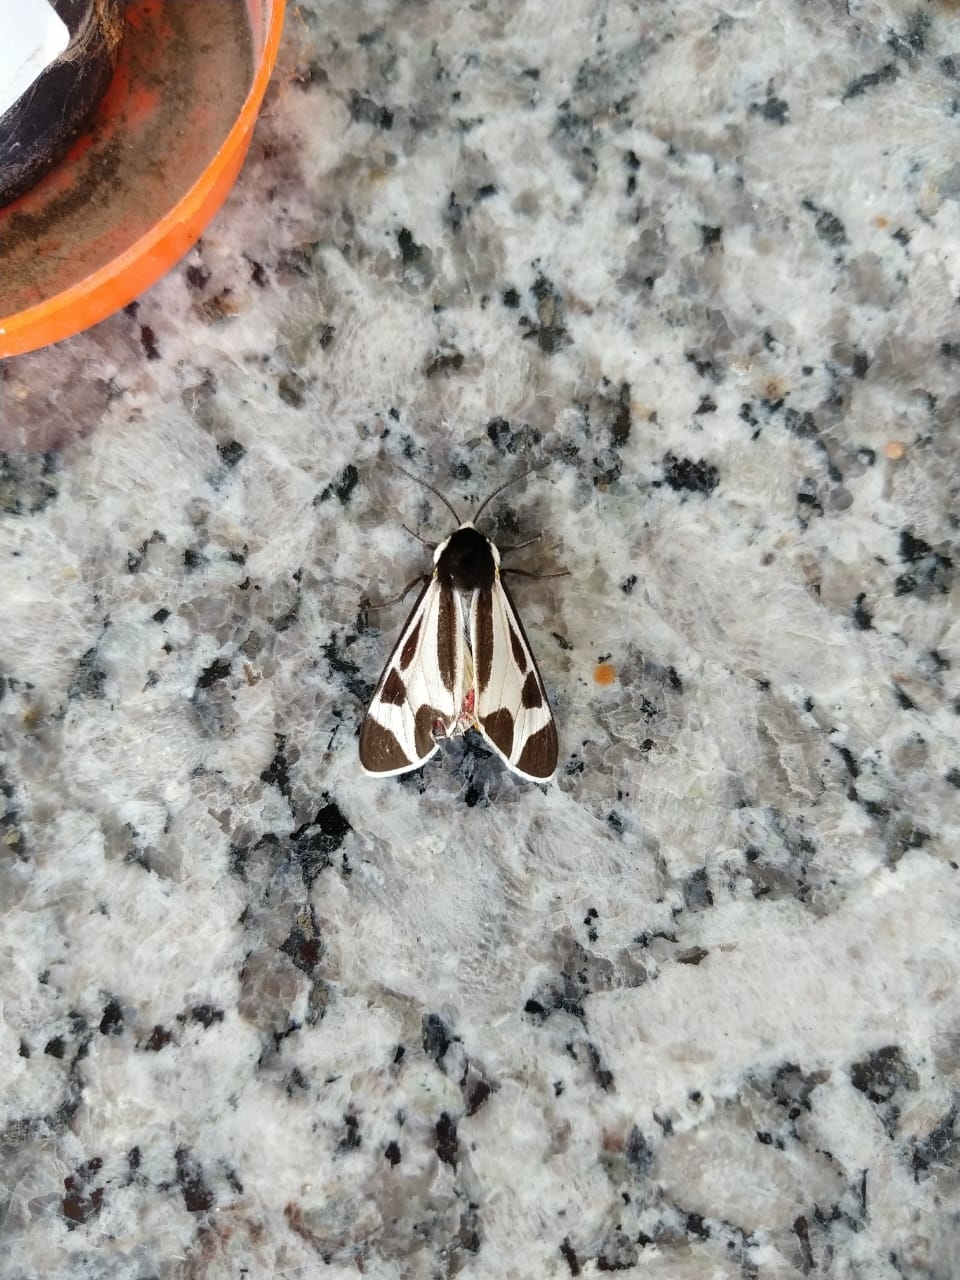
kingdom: Animalia
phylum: Arthropoda
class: Insecta
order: Lepidoptera
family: Erebidae
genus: Dysschema
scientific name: Dysschema centenaria
